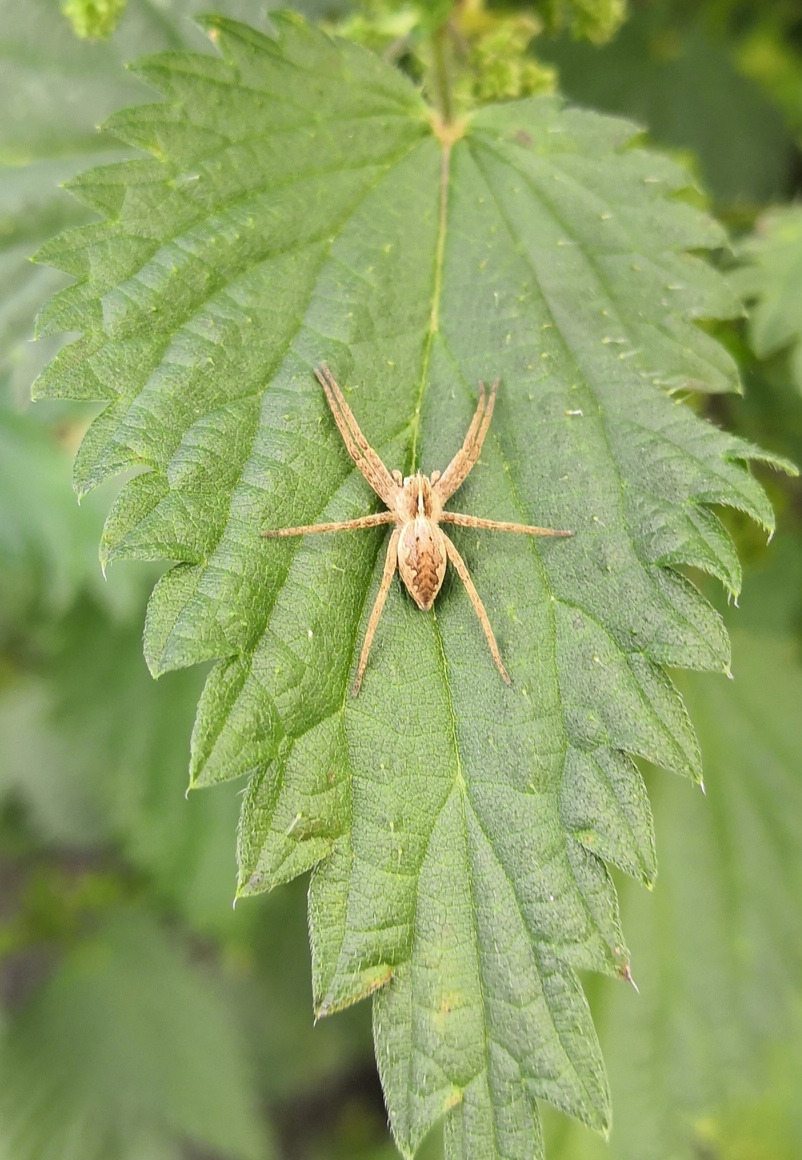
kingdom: Animalia
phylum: Arthropoda
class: Arachnida
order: Araneae
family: Pisauridae
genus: Pisaura
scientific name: Pisaura mirabilis
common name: Tent spider
